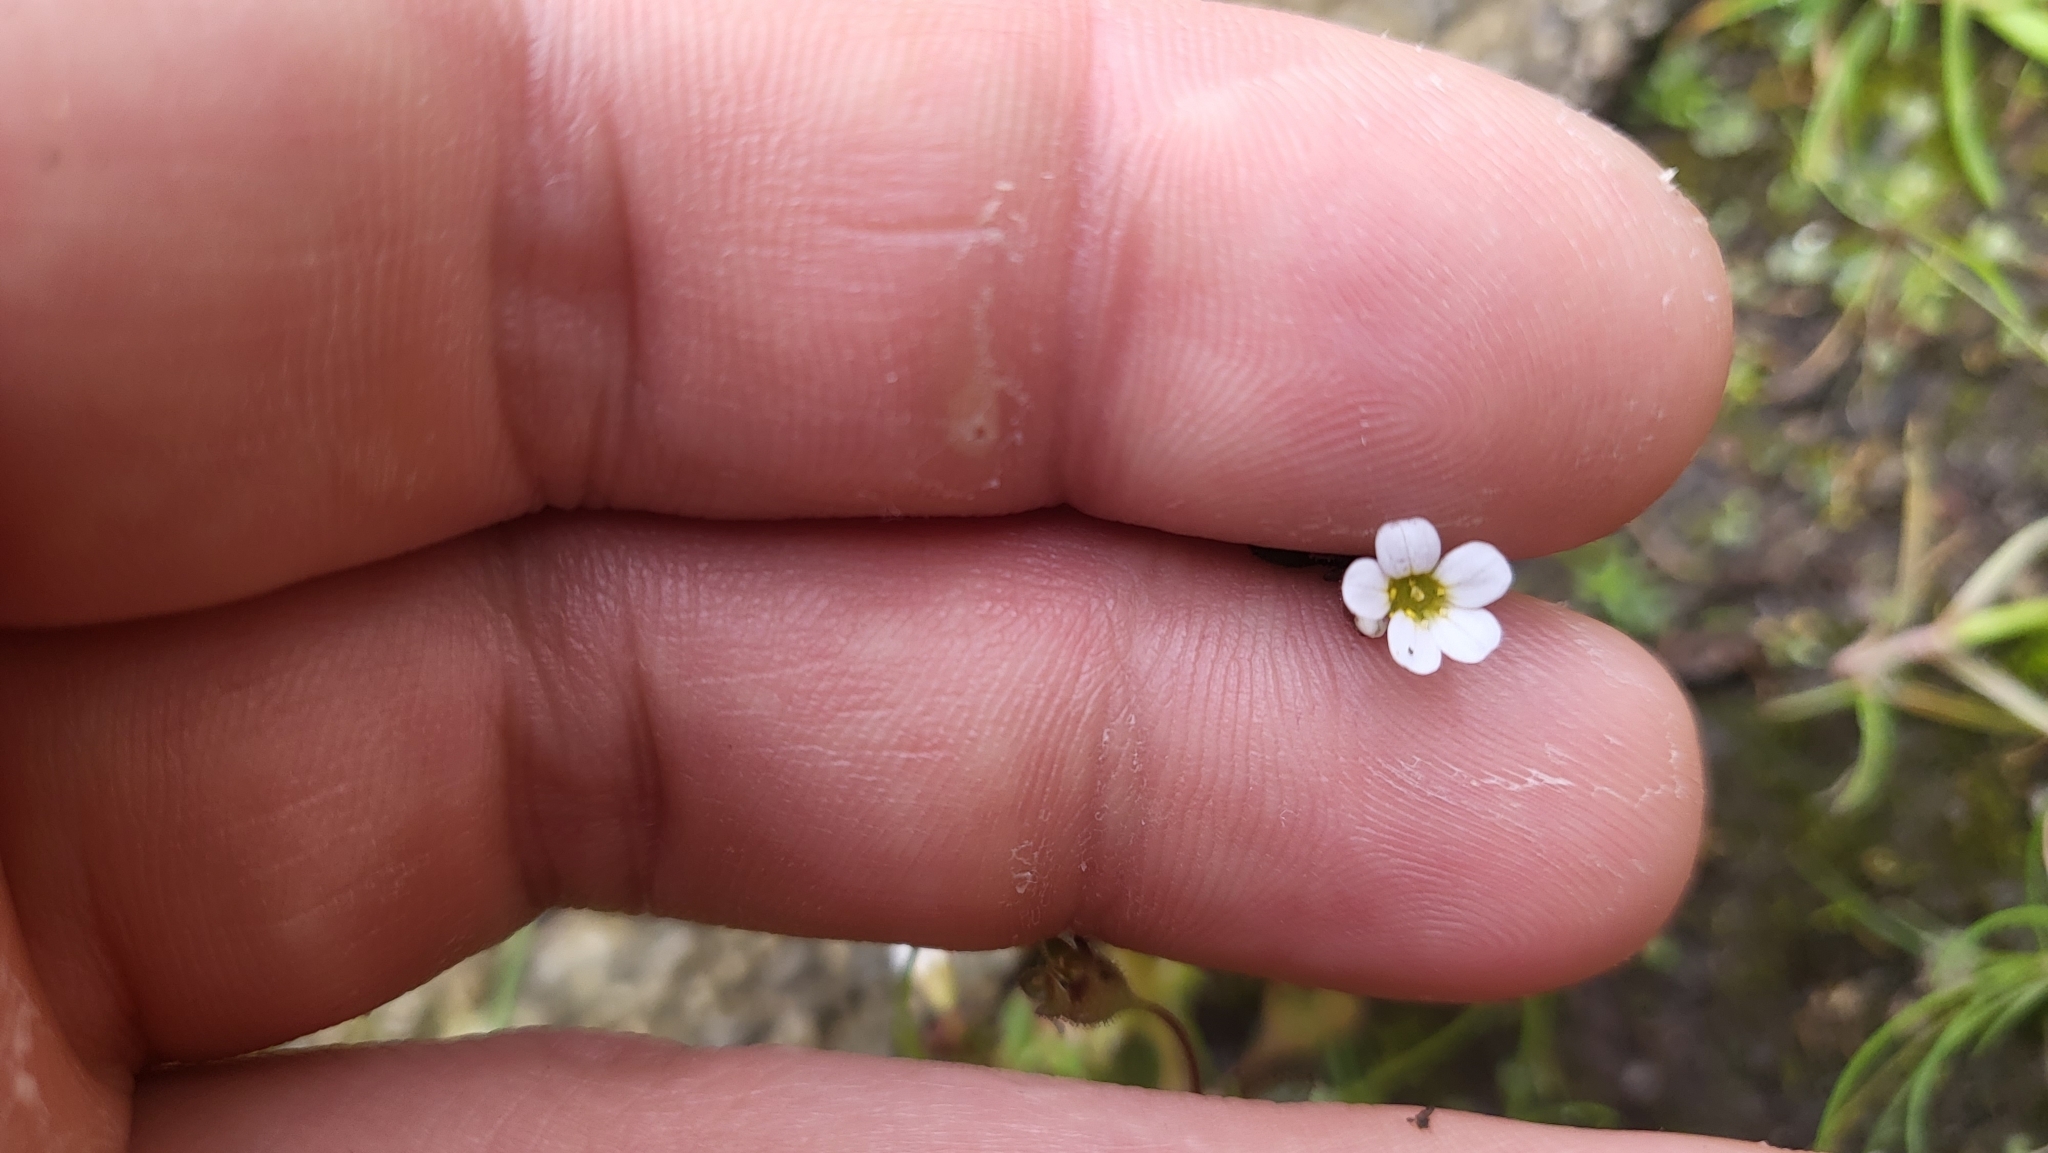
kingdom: Plantae
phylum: Tracheophyta
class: Magnoliopsida
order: Saxifragales
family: Saxifragaceae
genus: Saxifraga
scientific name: Saxifraga tridactylites
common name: Rue-leaved saxifrage
